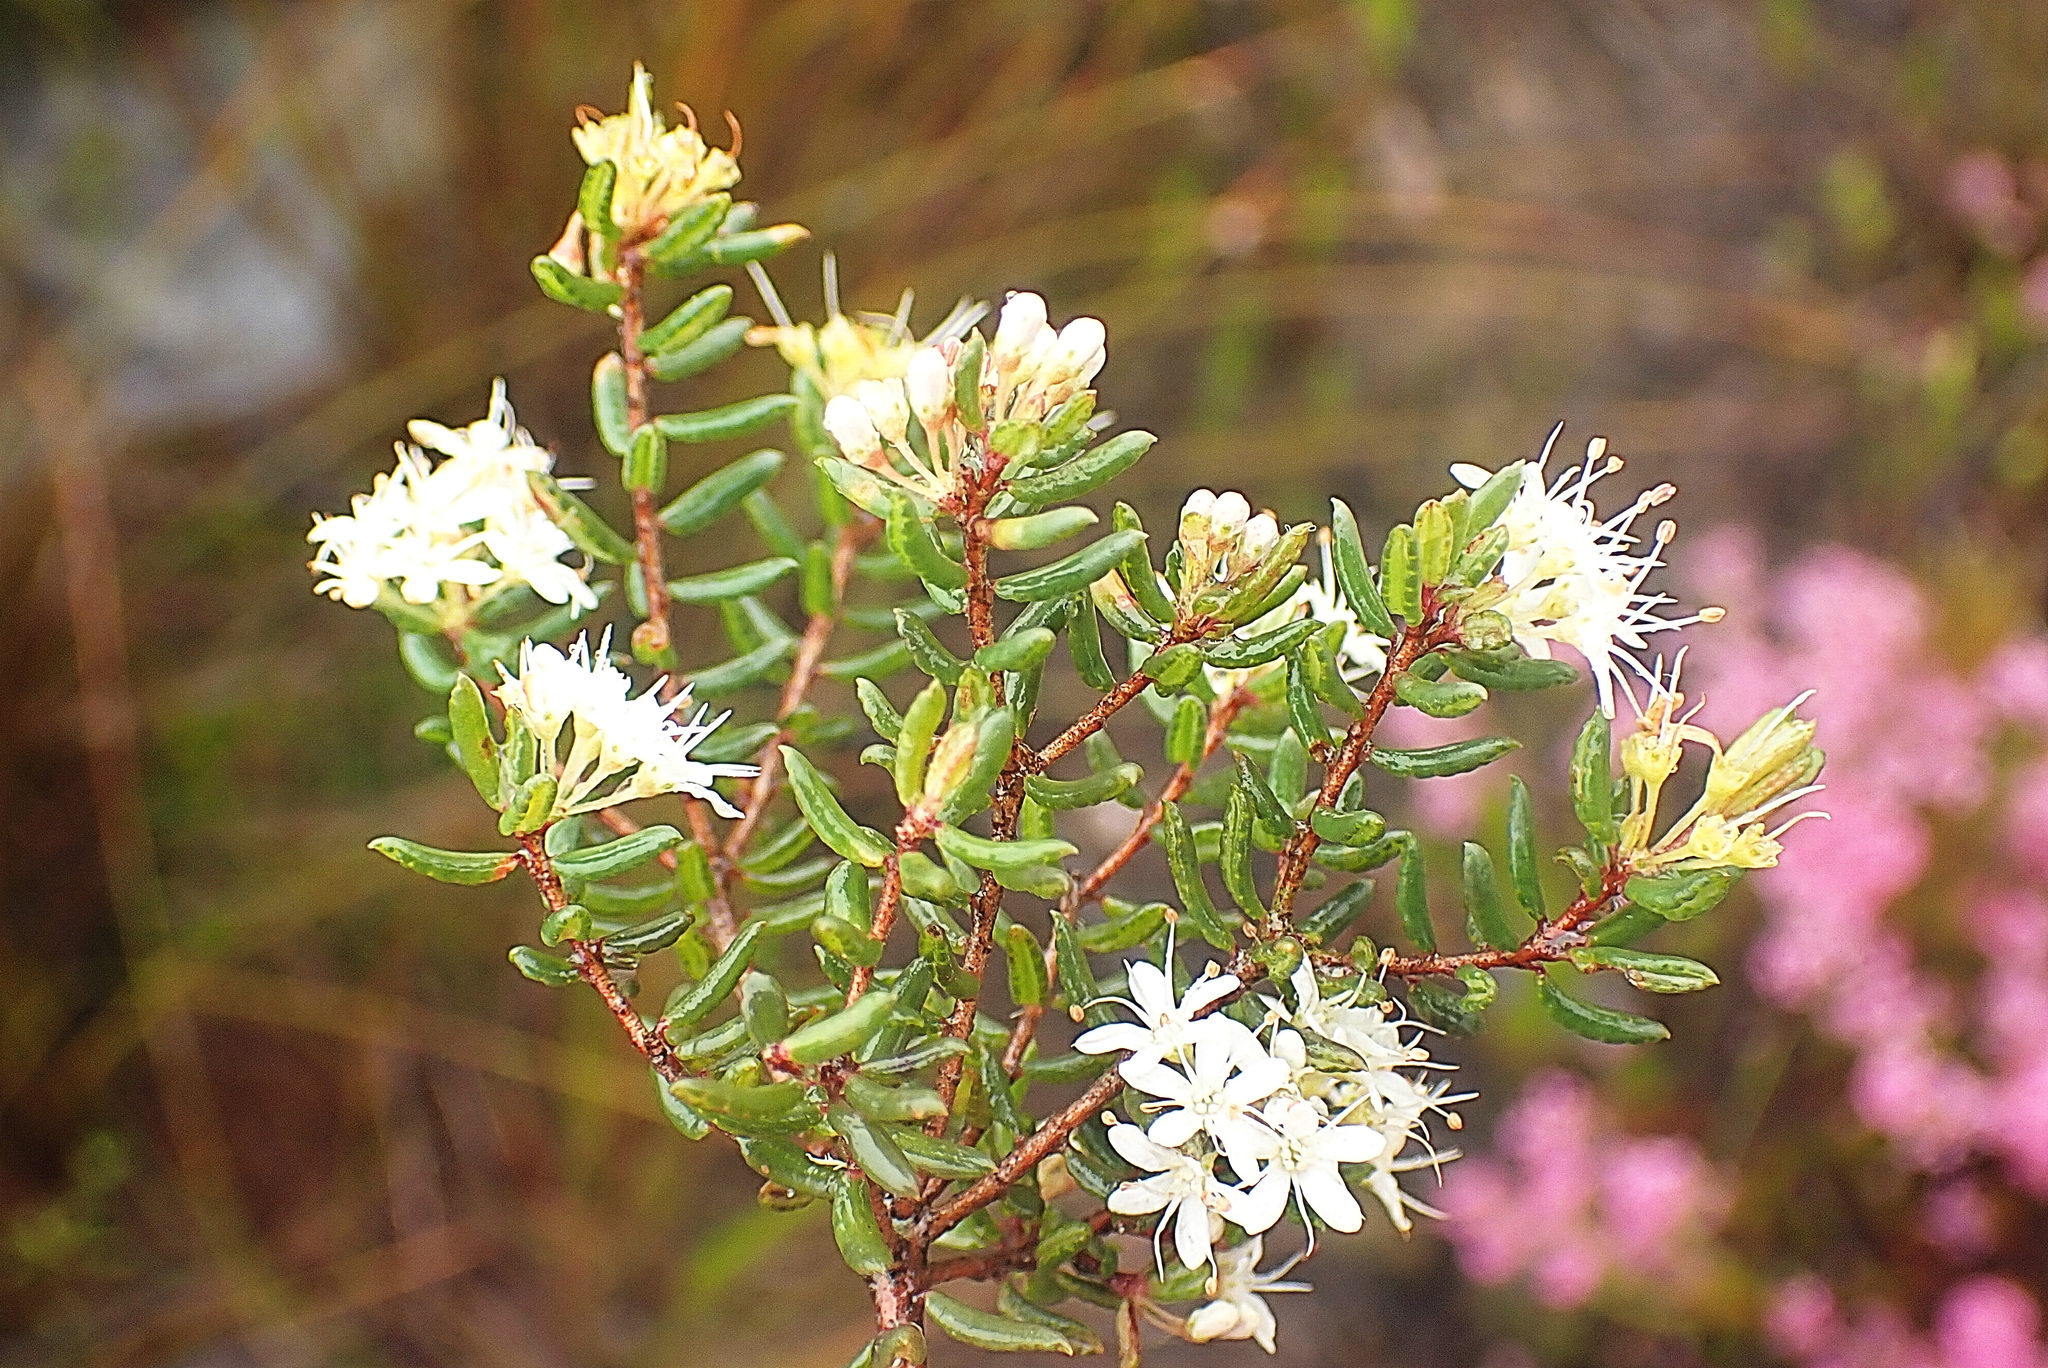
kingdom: Plantae
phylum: Tracheophyta
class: Magnoliopsida
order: Sapindales
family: Rutaceae
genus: Agathosma
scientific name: Agathosma mundtii
